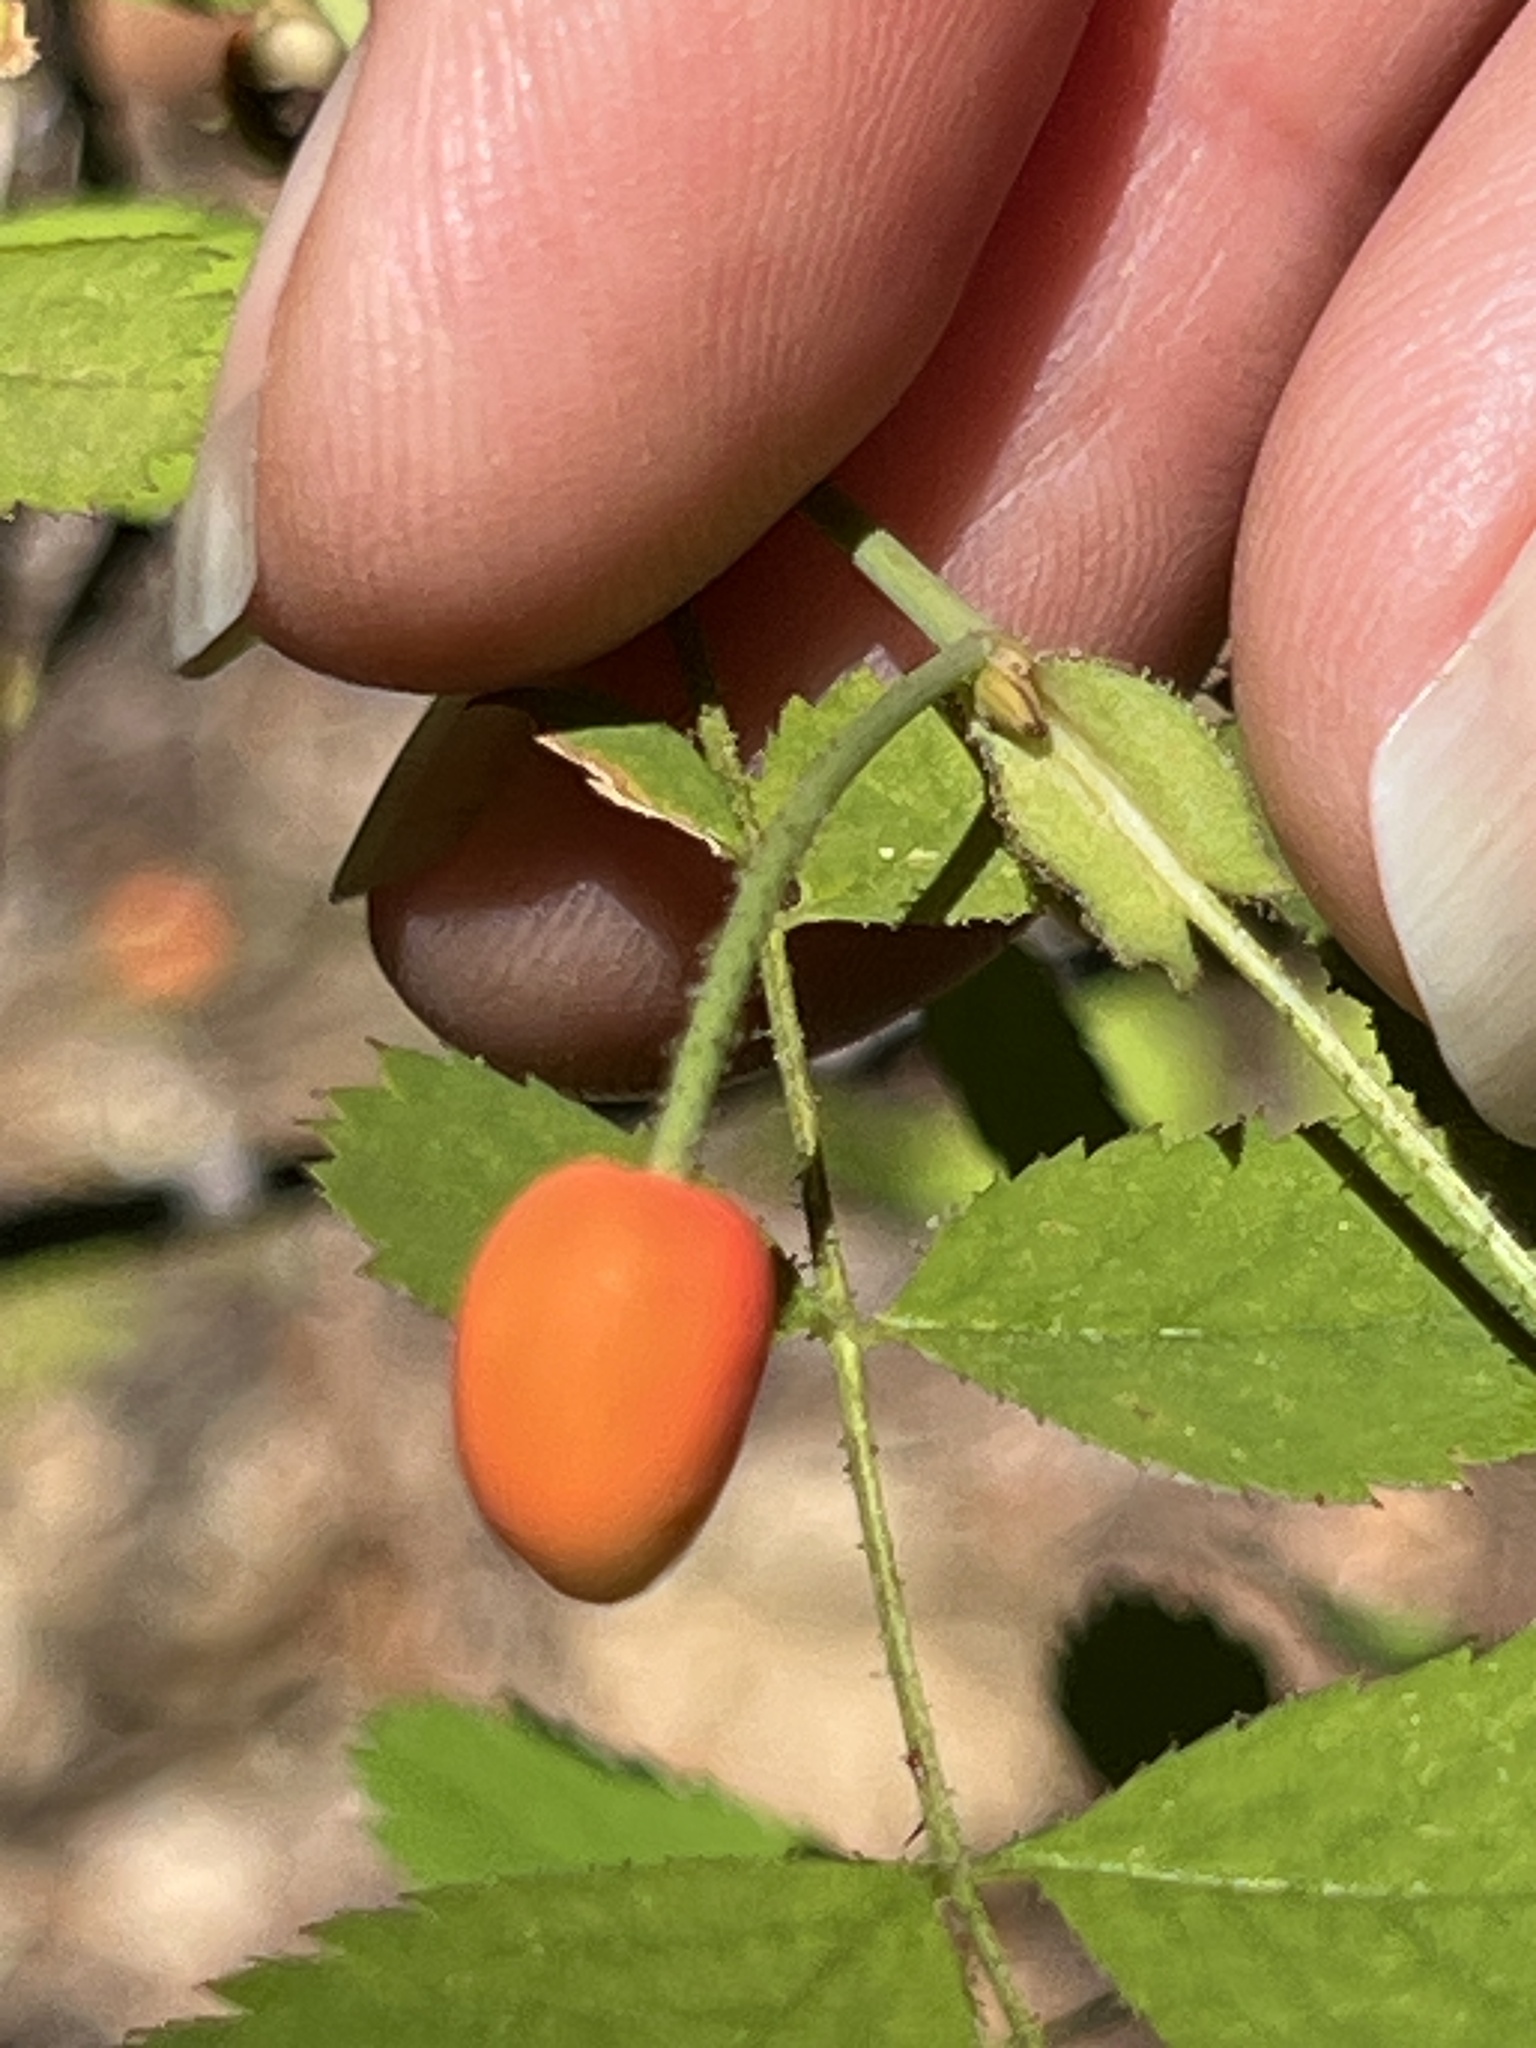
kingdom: Plantae
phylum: Tracheophyta
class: Magnoliopsida
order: Rosales
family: Rosaceae
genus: Rosa
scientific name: Rosa gymnocarpa
